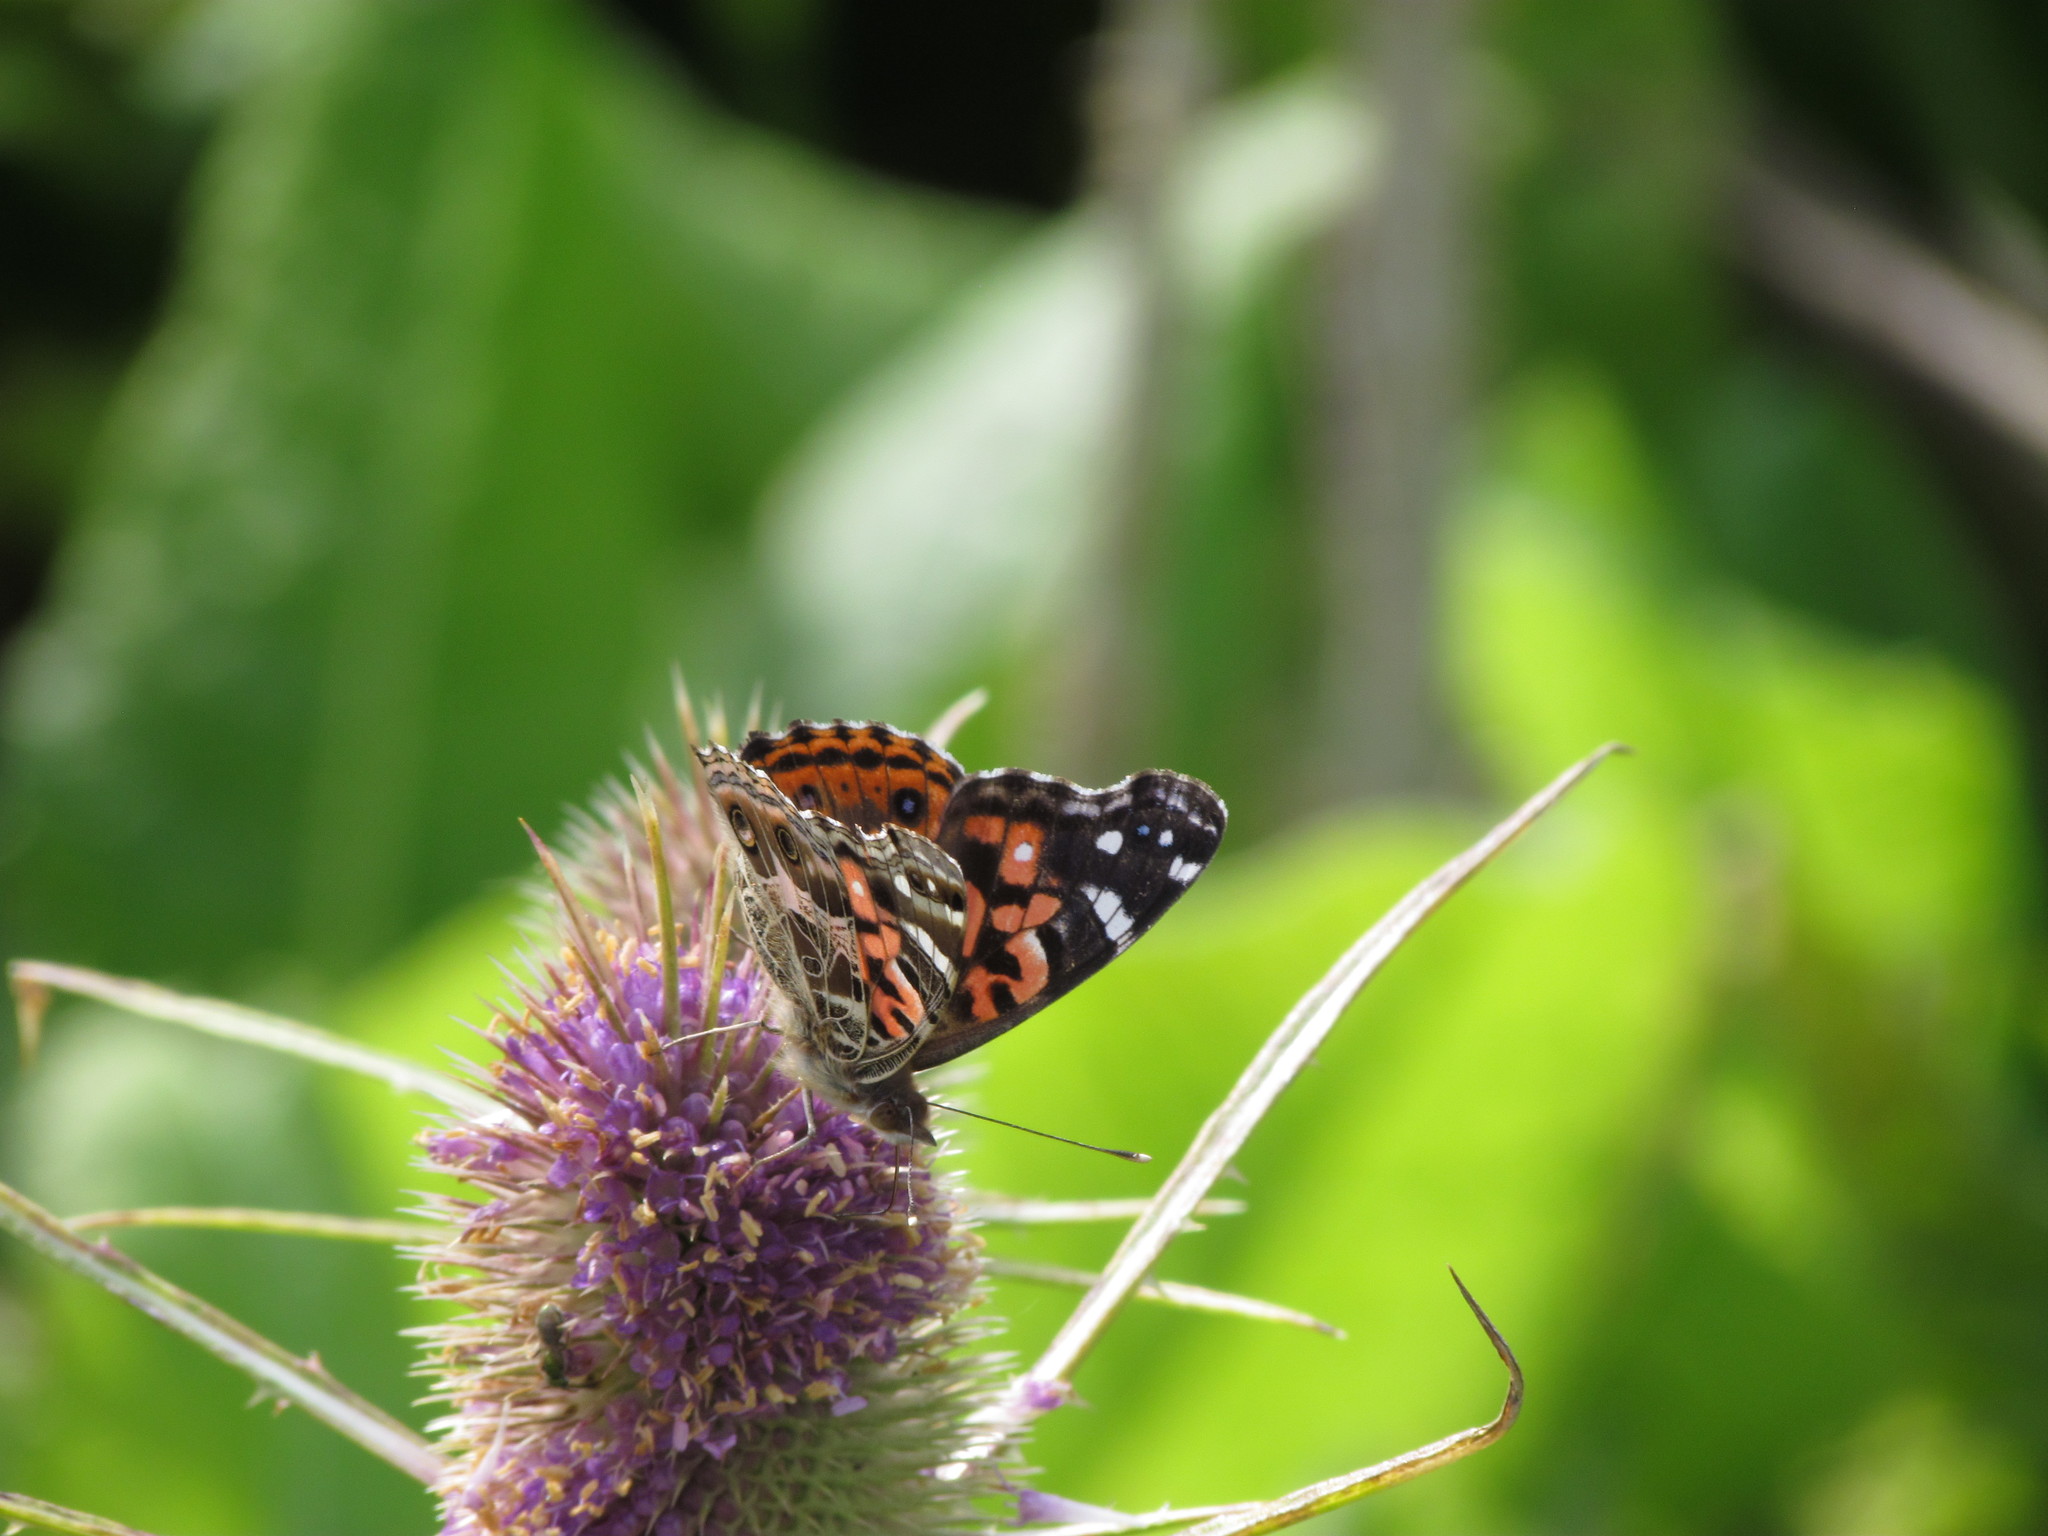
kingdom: Animalia
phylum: Arthropoda
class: Insecta
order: Lepidoptera
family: Nymphalidae
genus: Vanessa
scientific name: Vanessa braziliensis
